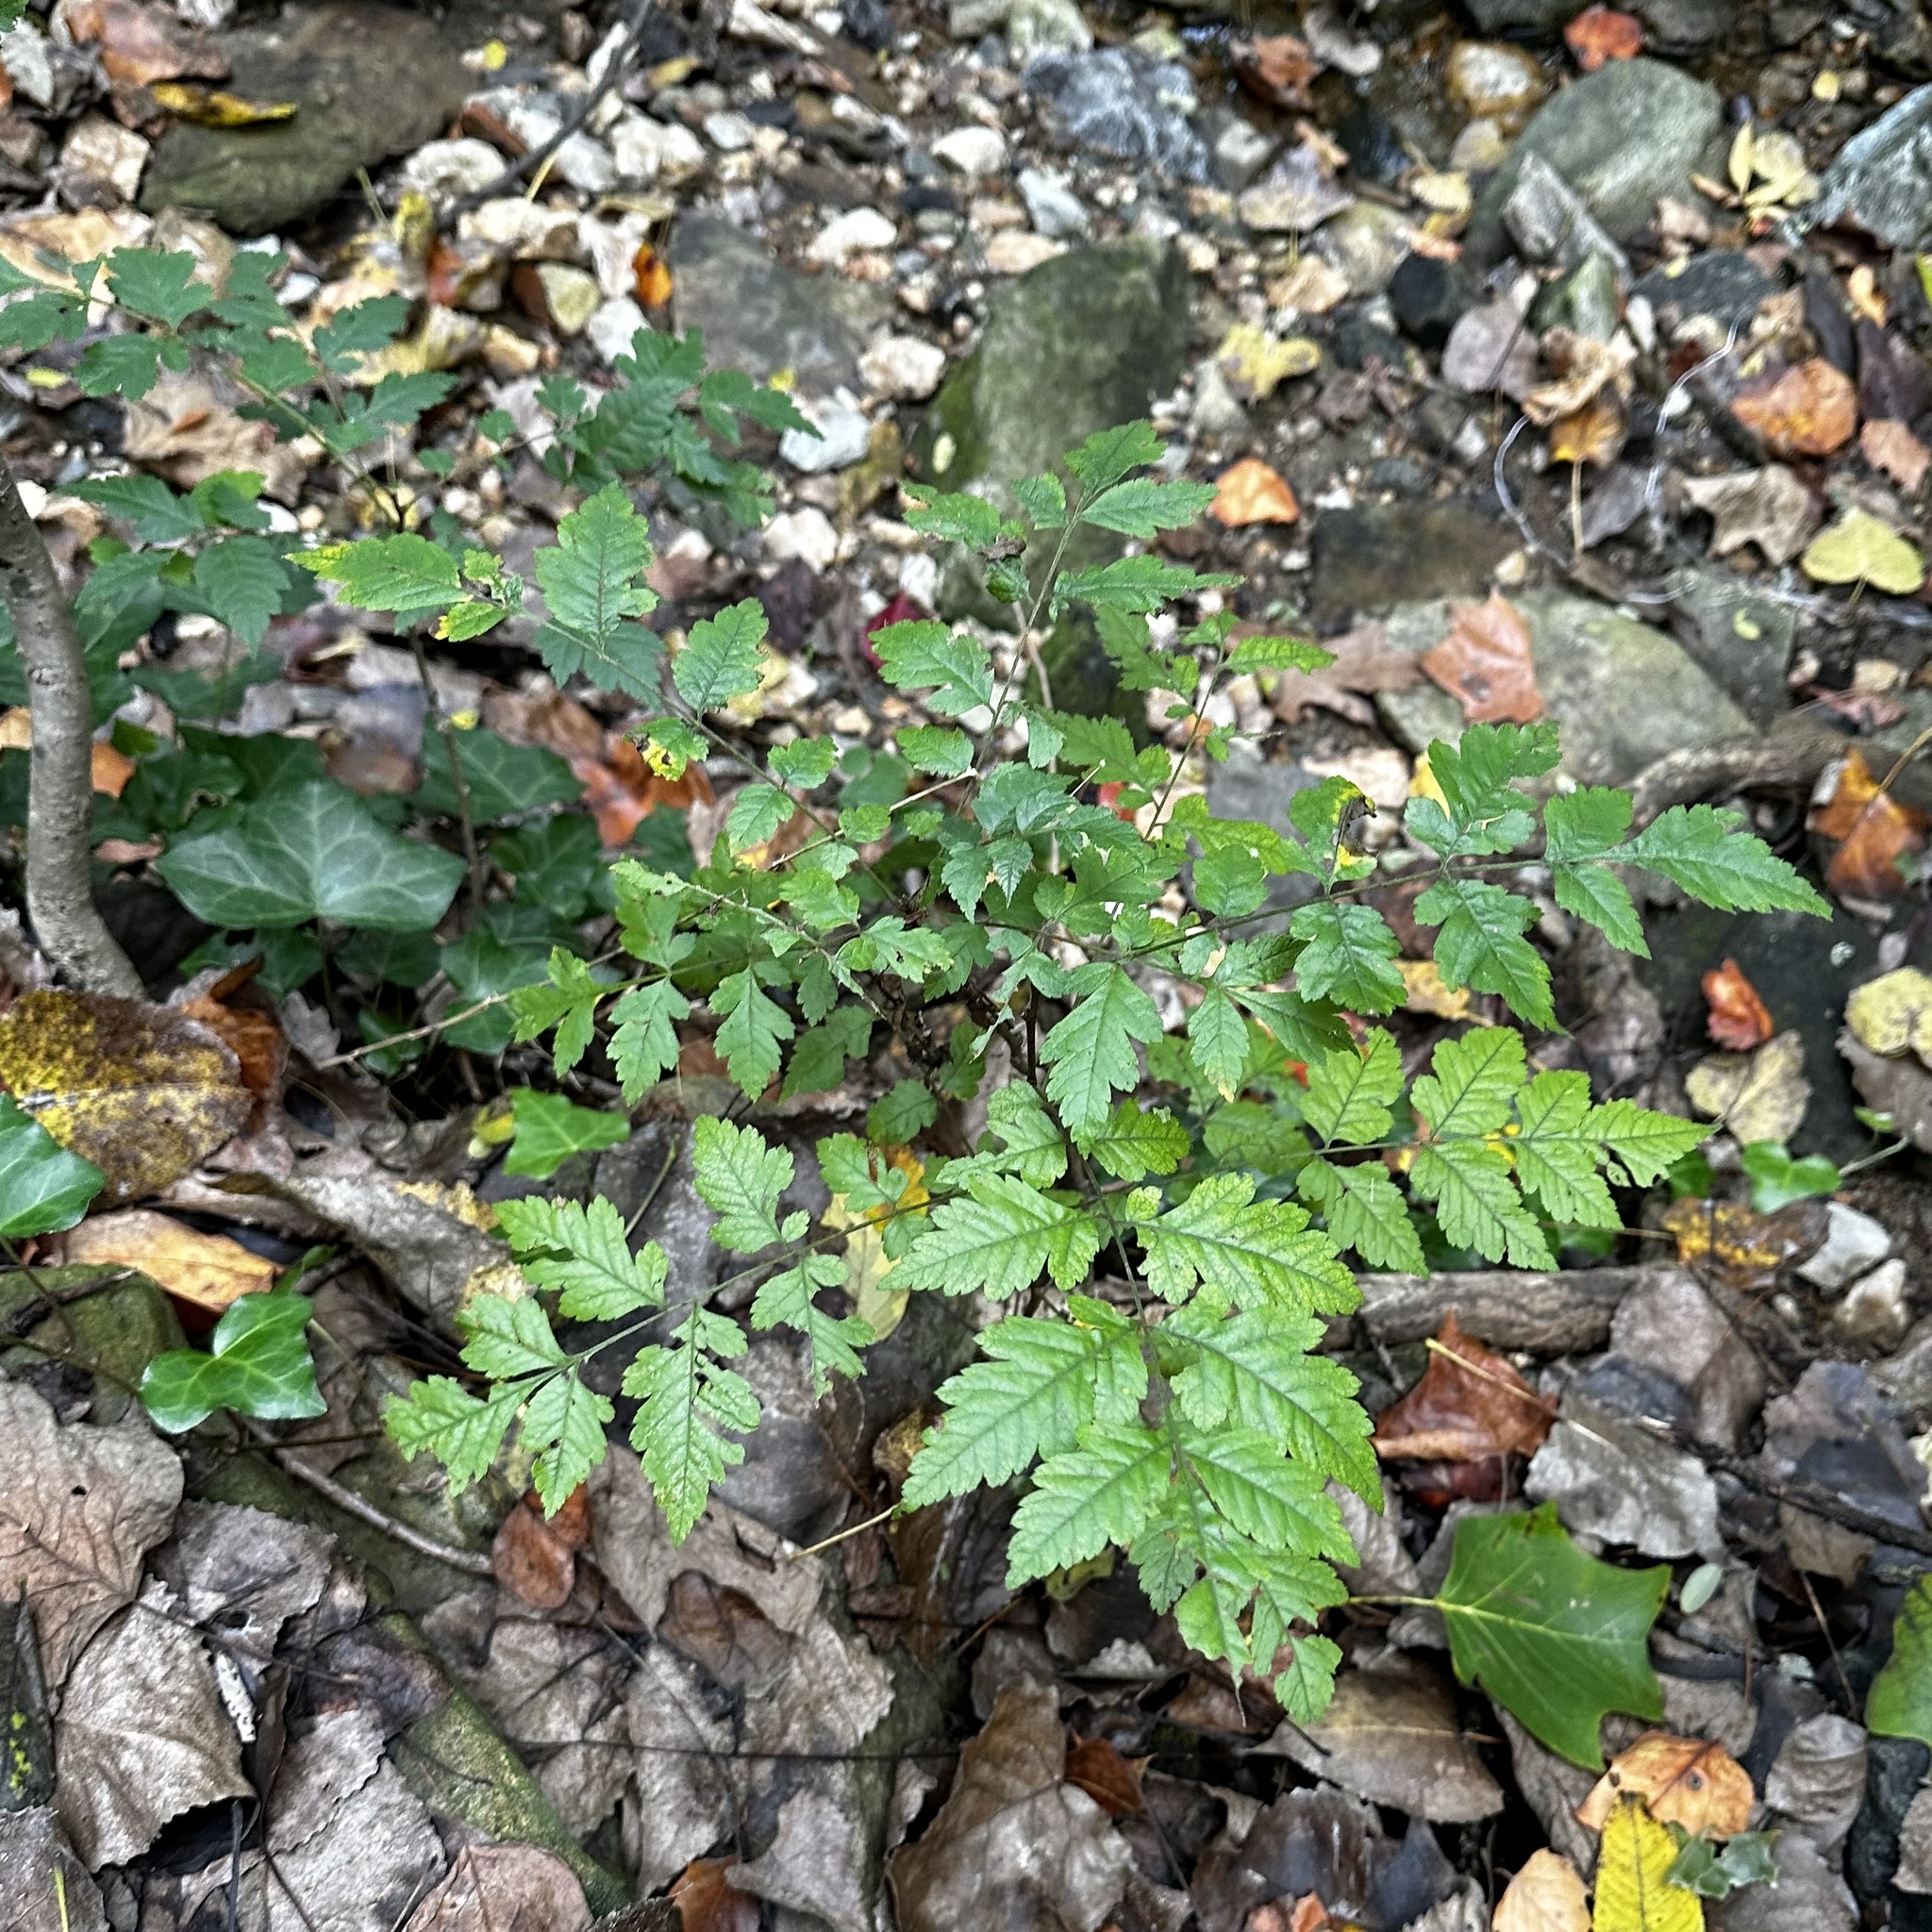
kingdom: Plantae
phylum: Tracheophyta
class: Magnoliopsida
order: Sapindales
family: Sapindaceae
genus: Koelreuteria
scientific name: Koelreuteria paniculata
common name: Pride-of-india
